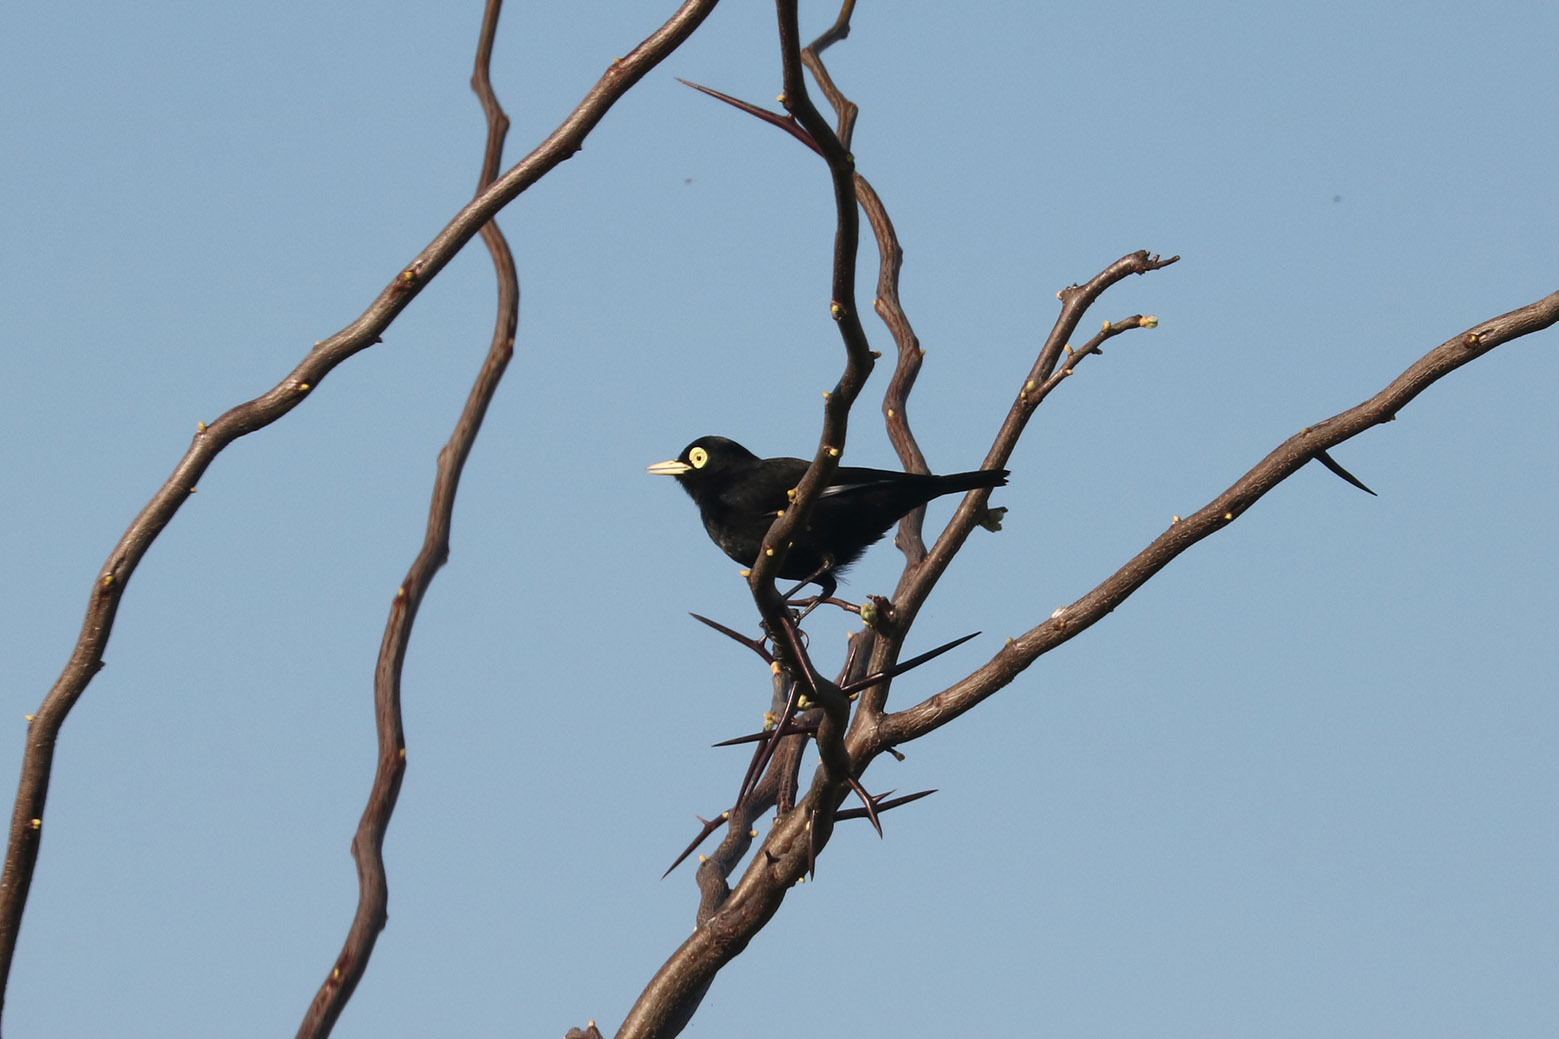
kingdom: Animalia
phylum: Chordata
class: Aves
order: Passeriformes
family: Tyrannidae
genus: Hymenops
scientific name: Hymenops perspicillatus
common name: Spectacled tyrant
